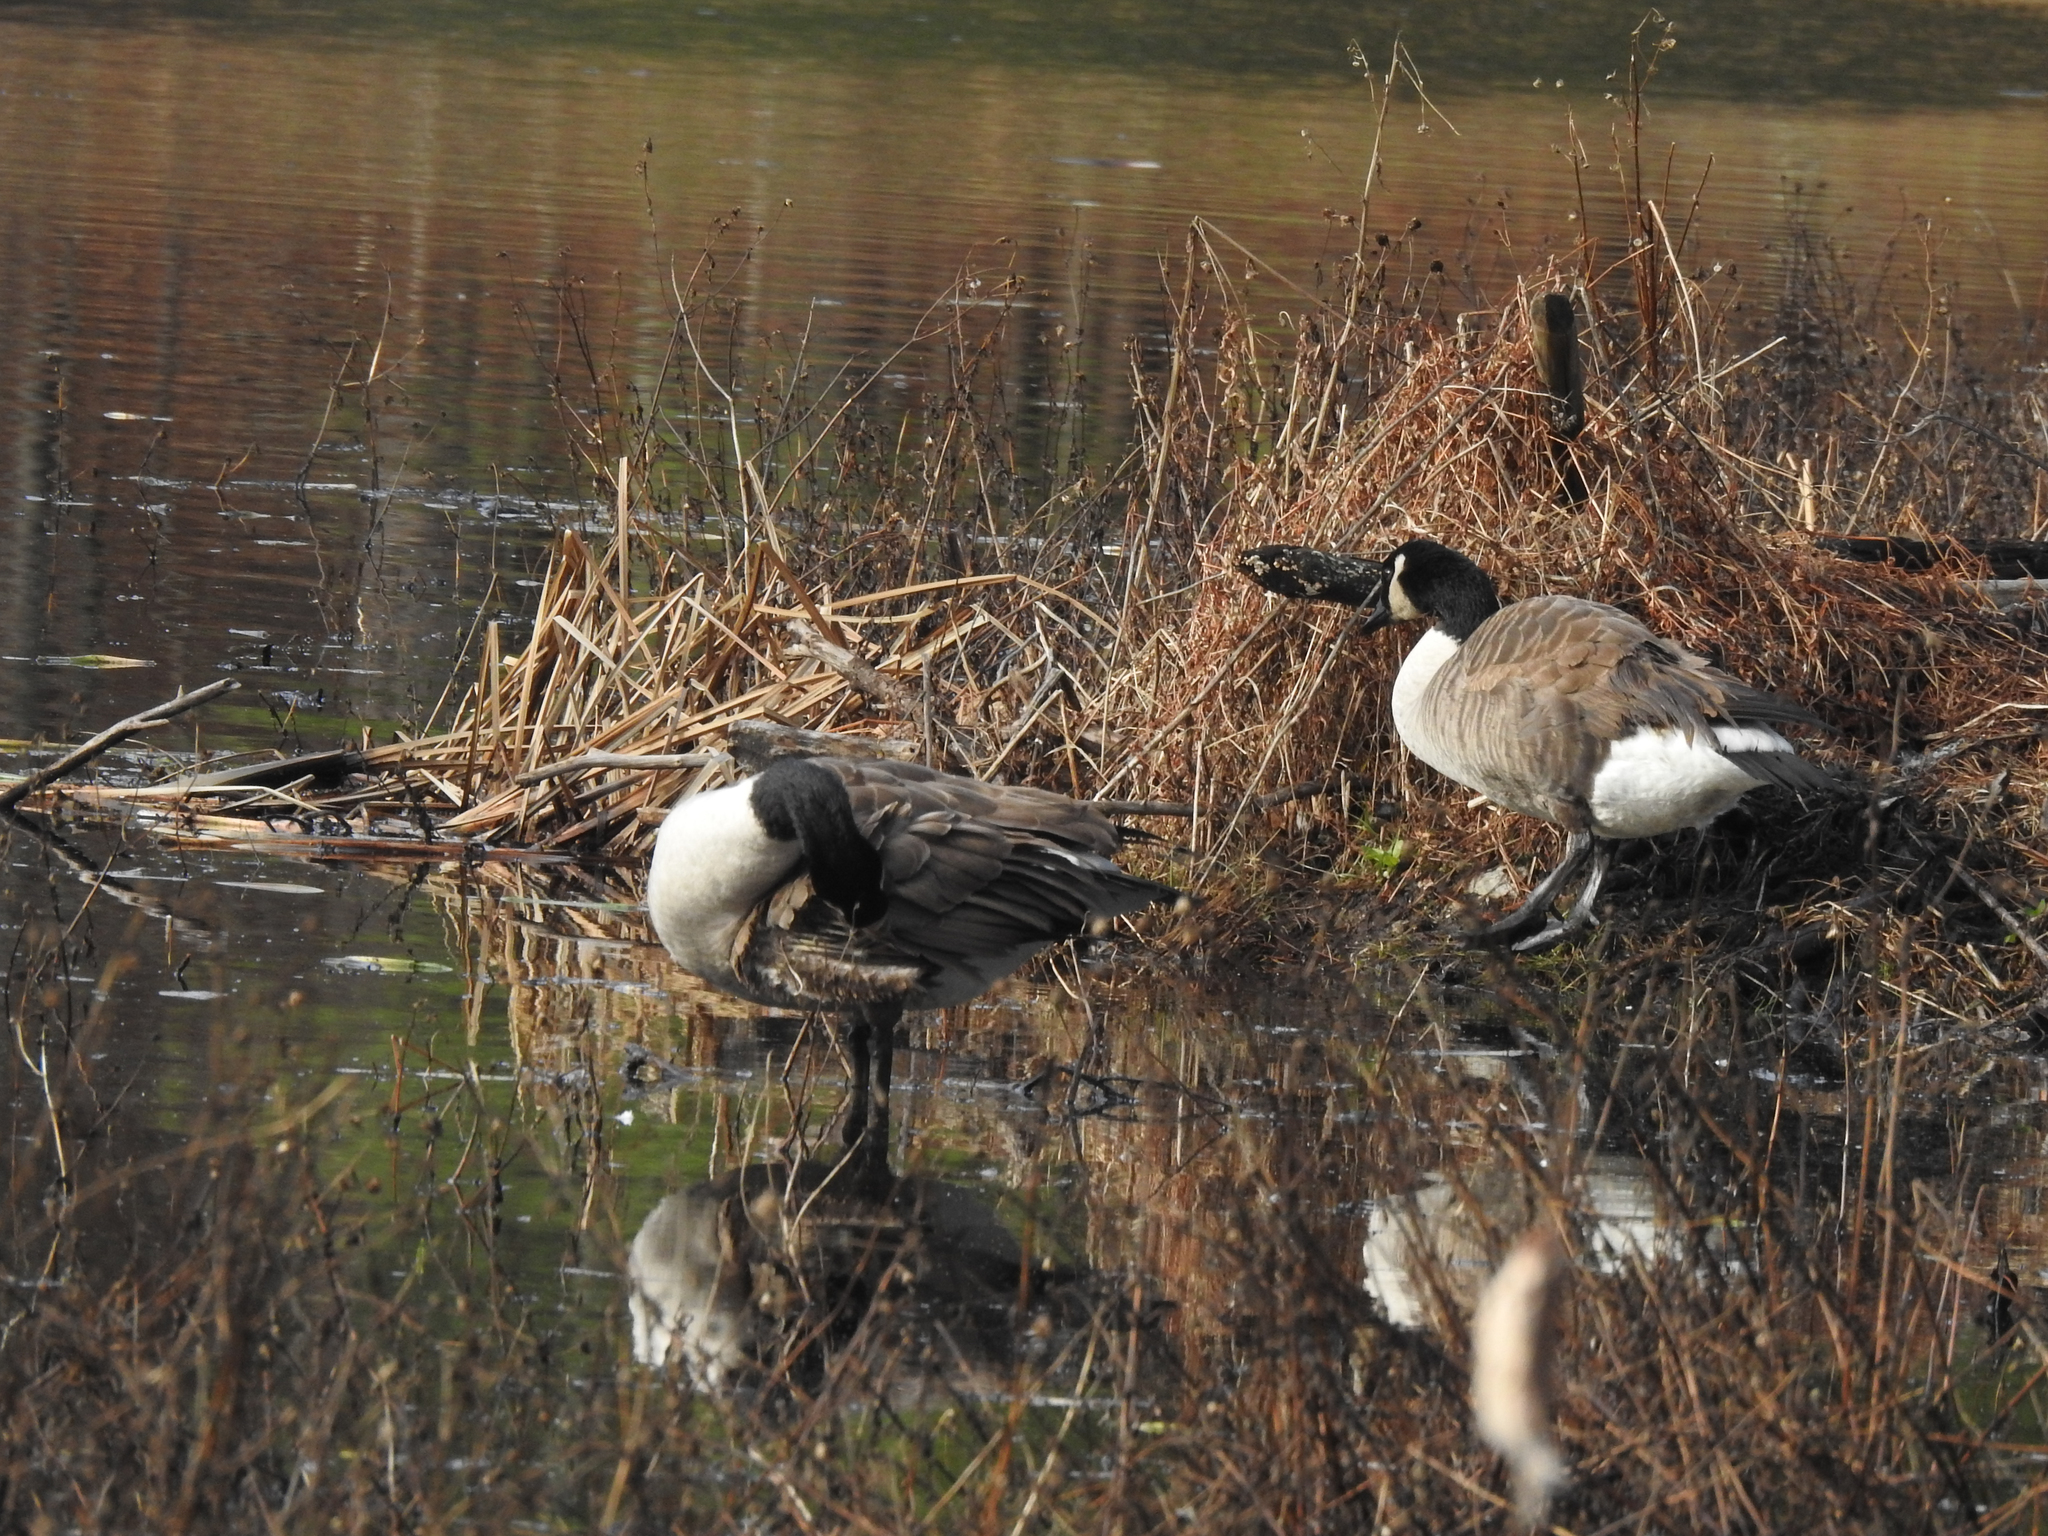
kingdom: Animalia
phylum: Chordata
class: Aves
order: Anseriformes
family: Anatidae
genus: Branta
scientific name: Branta canadensis
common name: Canada goose
